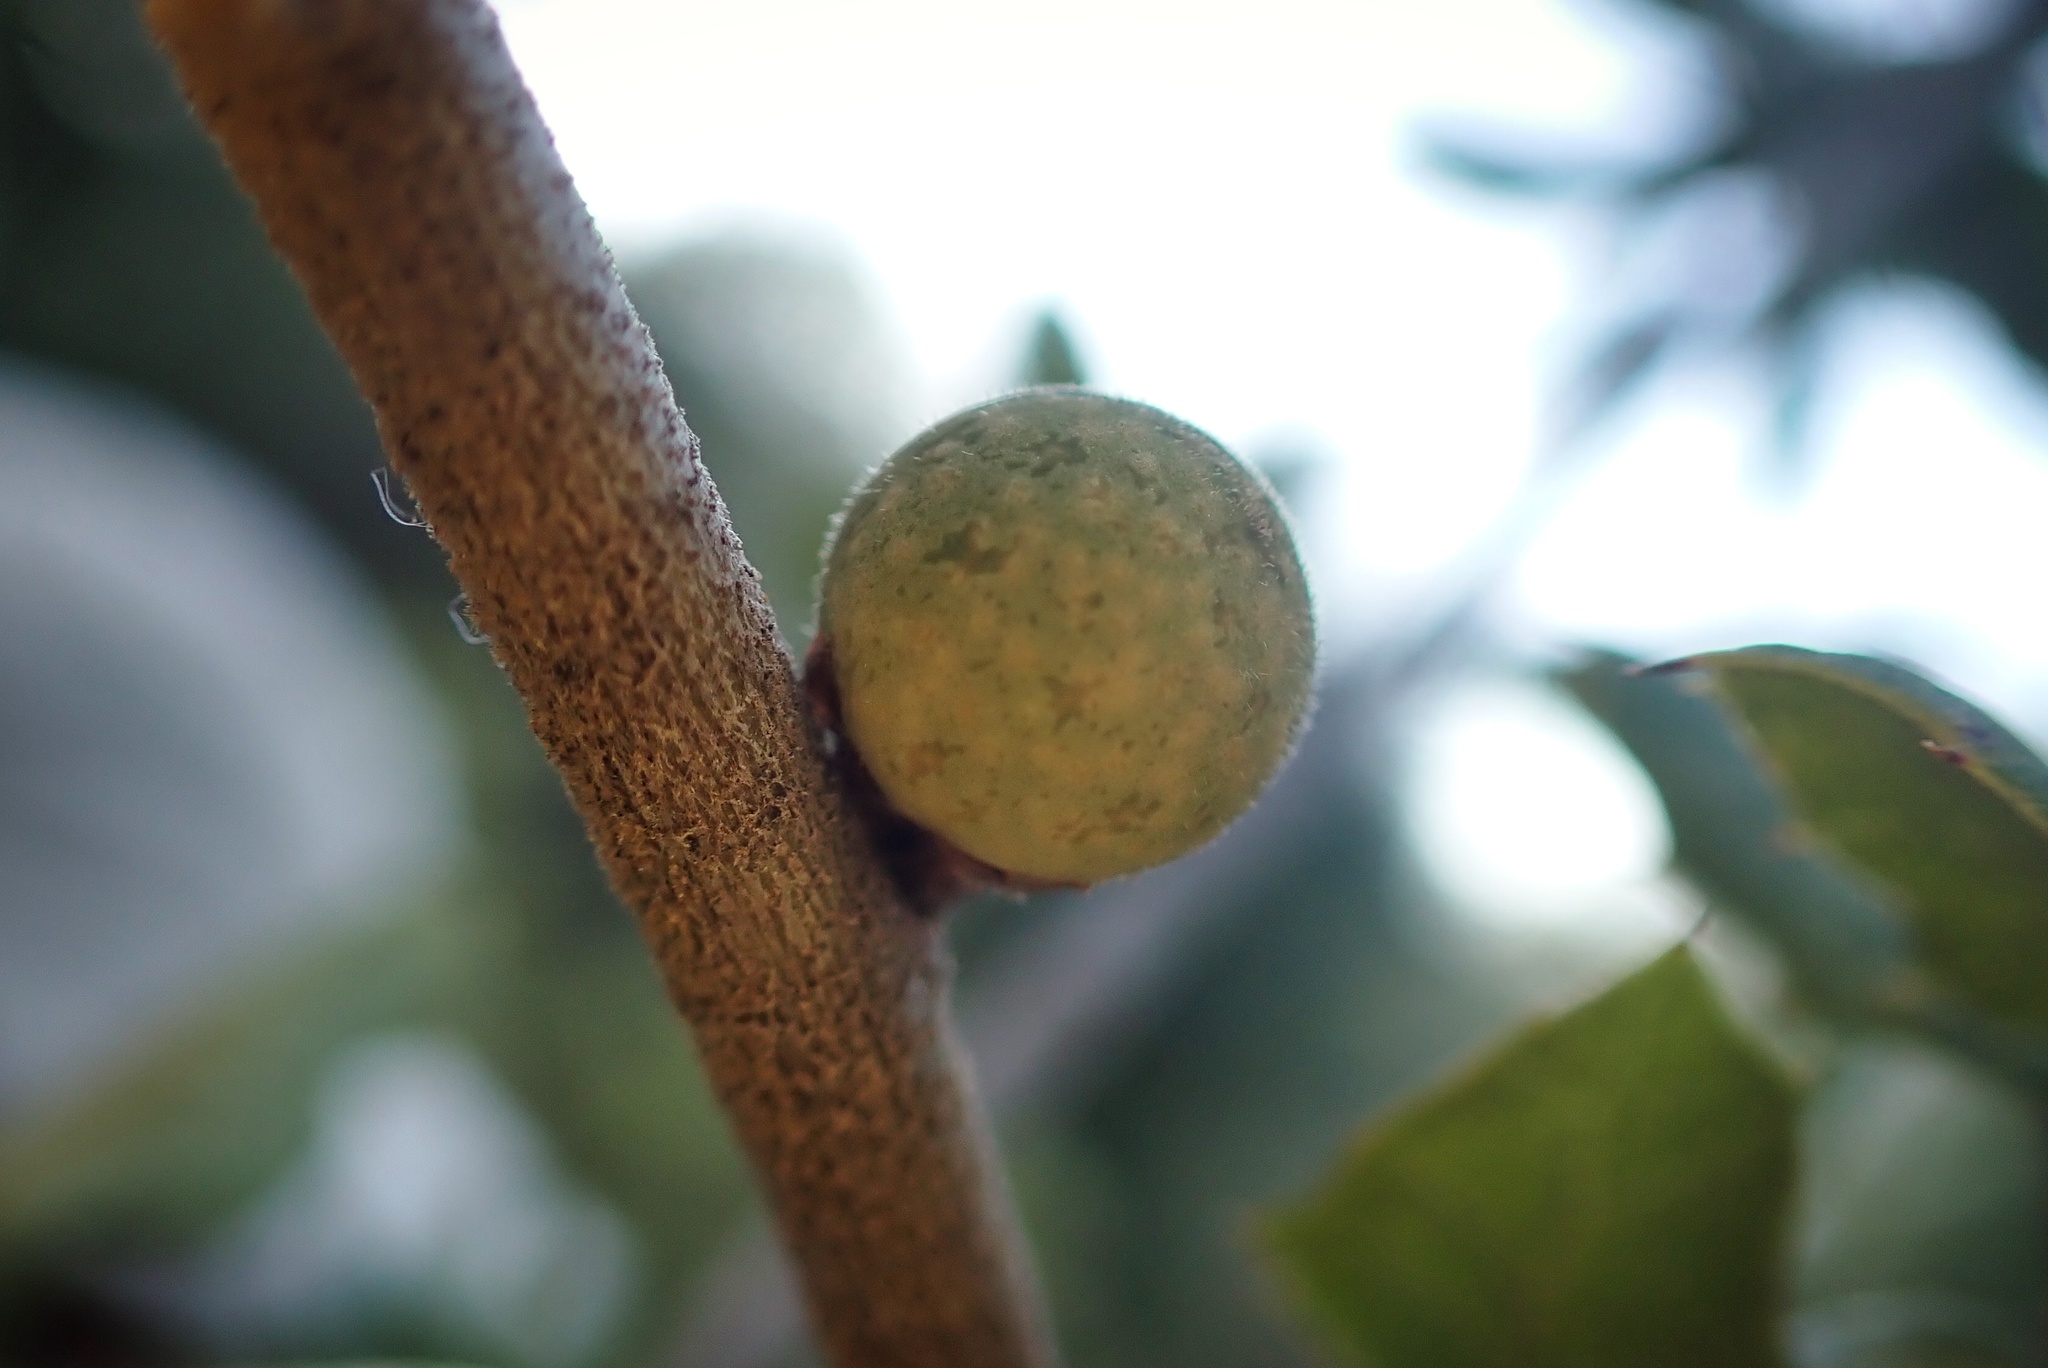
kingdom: Animalia
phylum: Arthropoda
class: Insecta
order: Hymenoptera
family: Cynipidae
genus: Callirhytis
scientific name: Callirhytis
